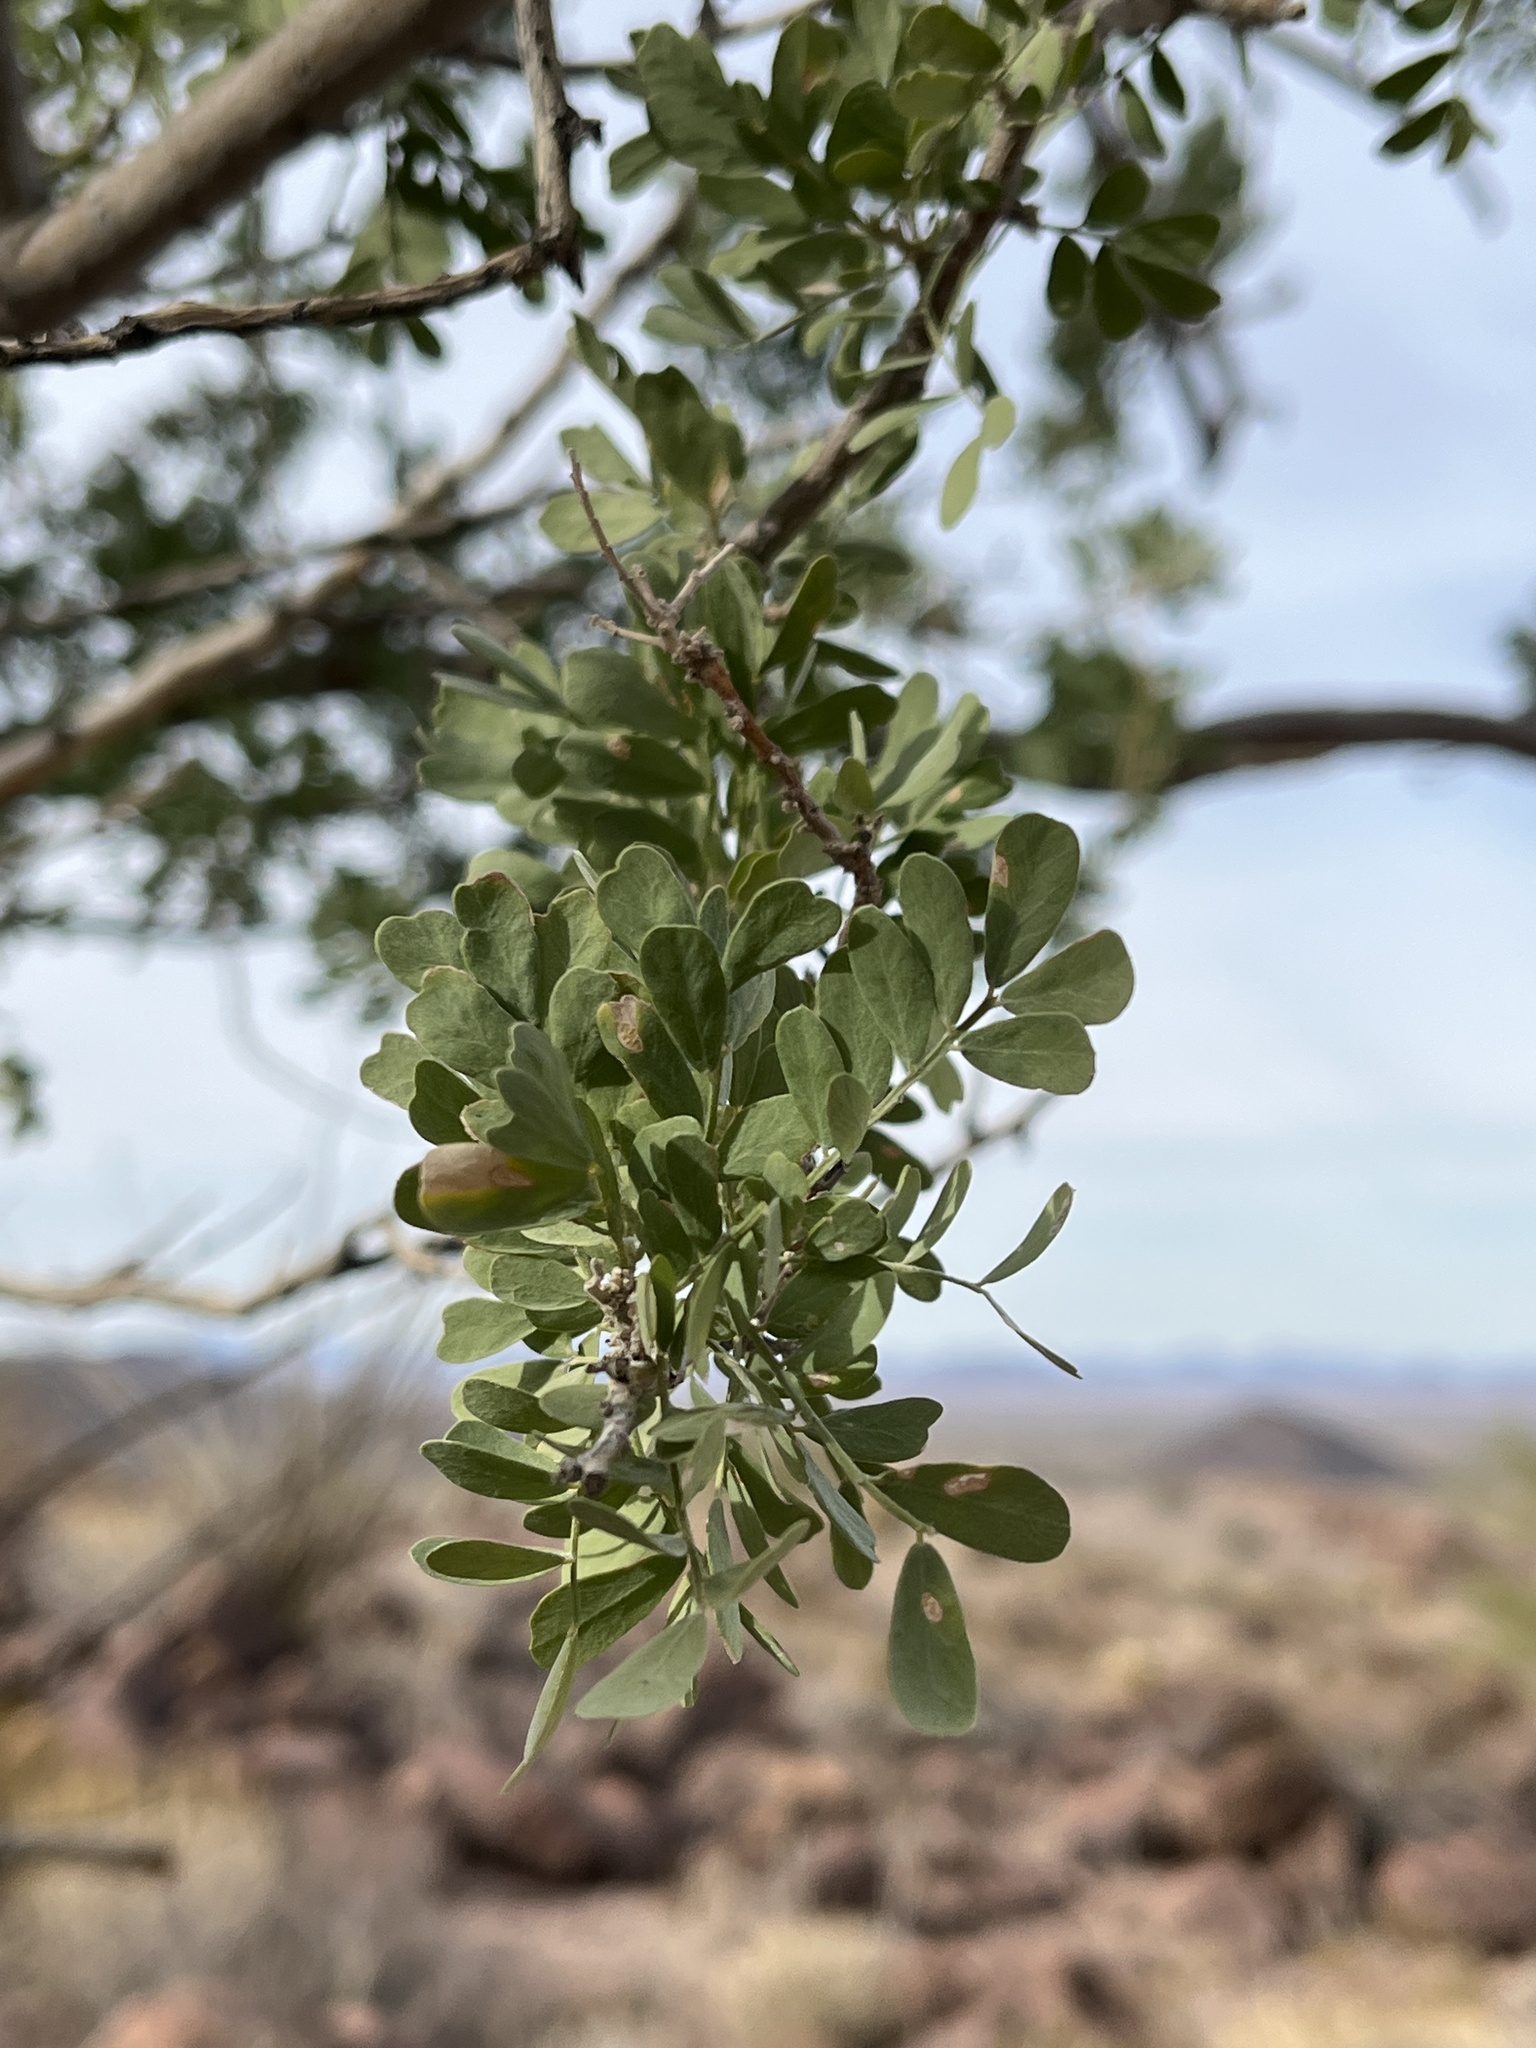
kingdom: Plantae
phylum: Tracheophyta
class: Magnoliopsida
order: Fabales
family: Fabaceae
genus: Olneya
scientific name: Olneya tesota
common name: Desert ironwood
